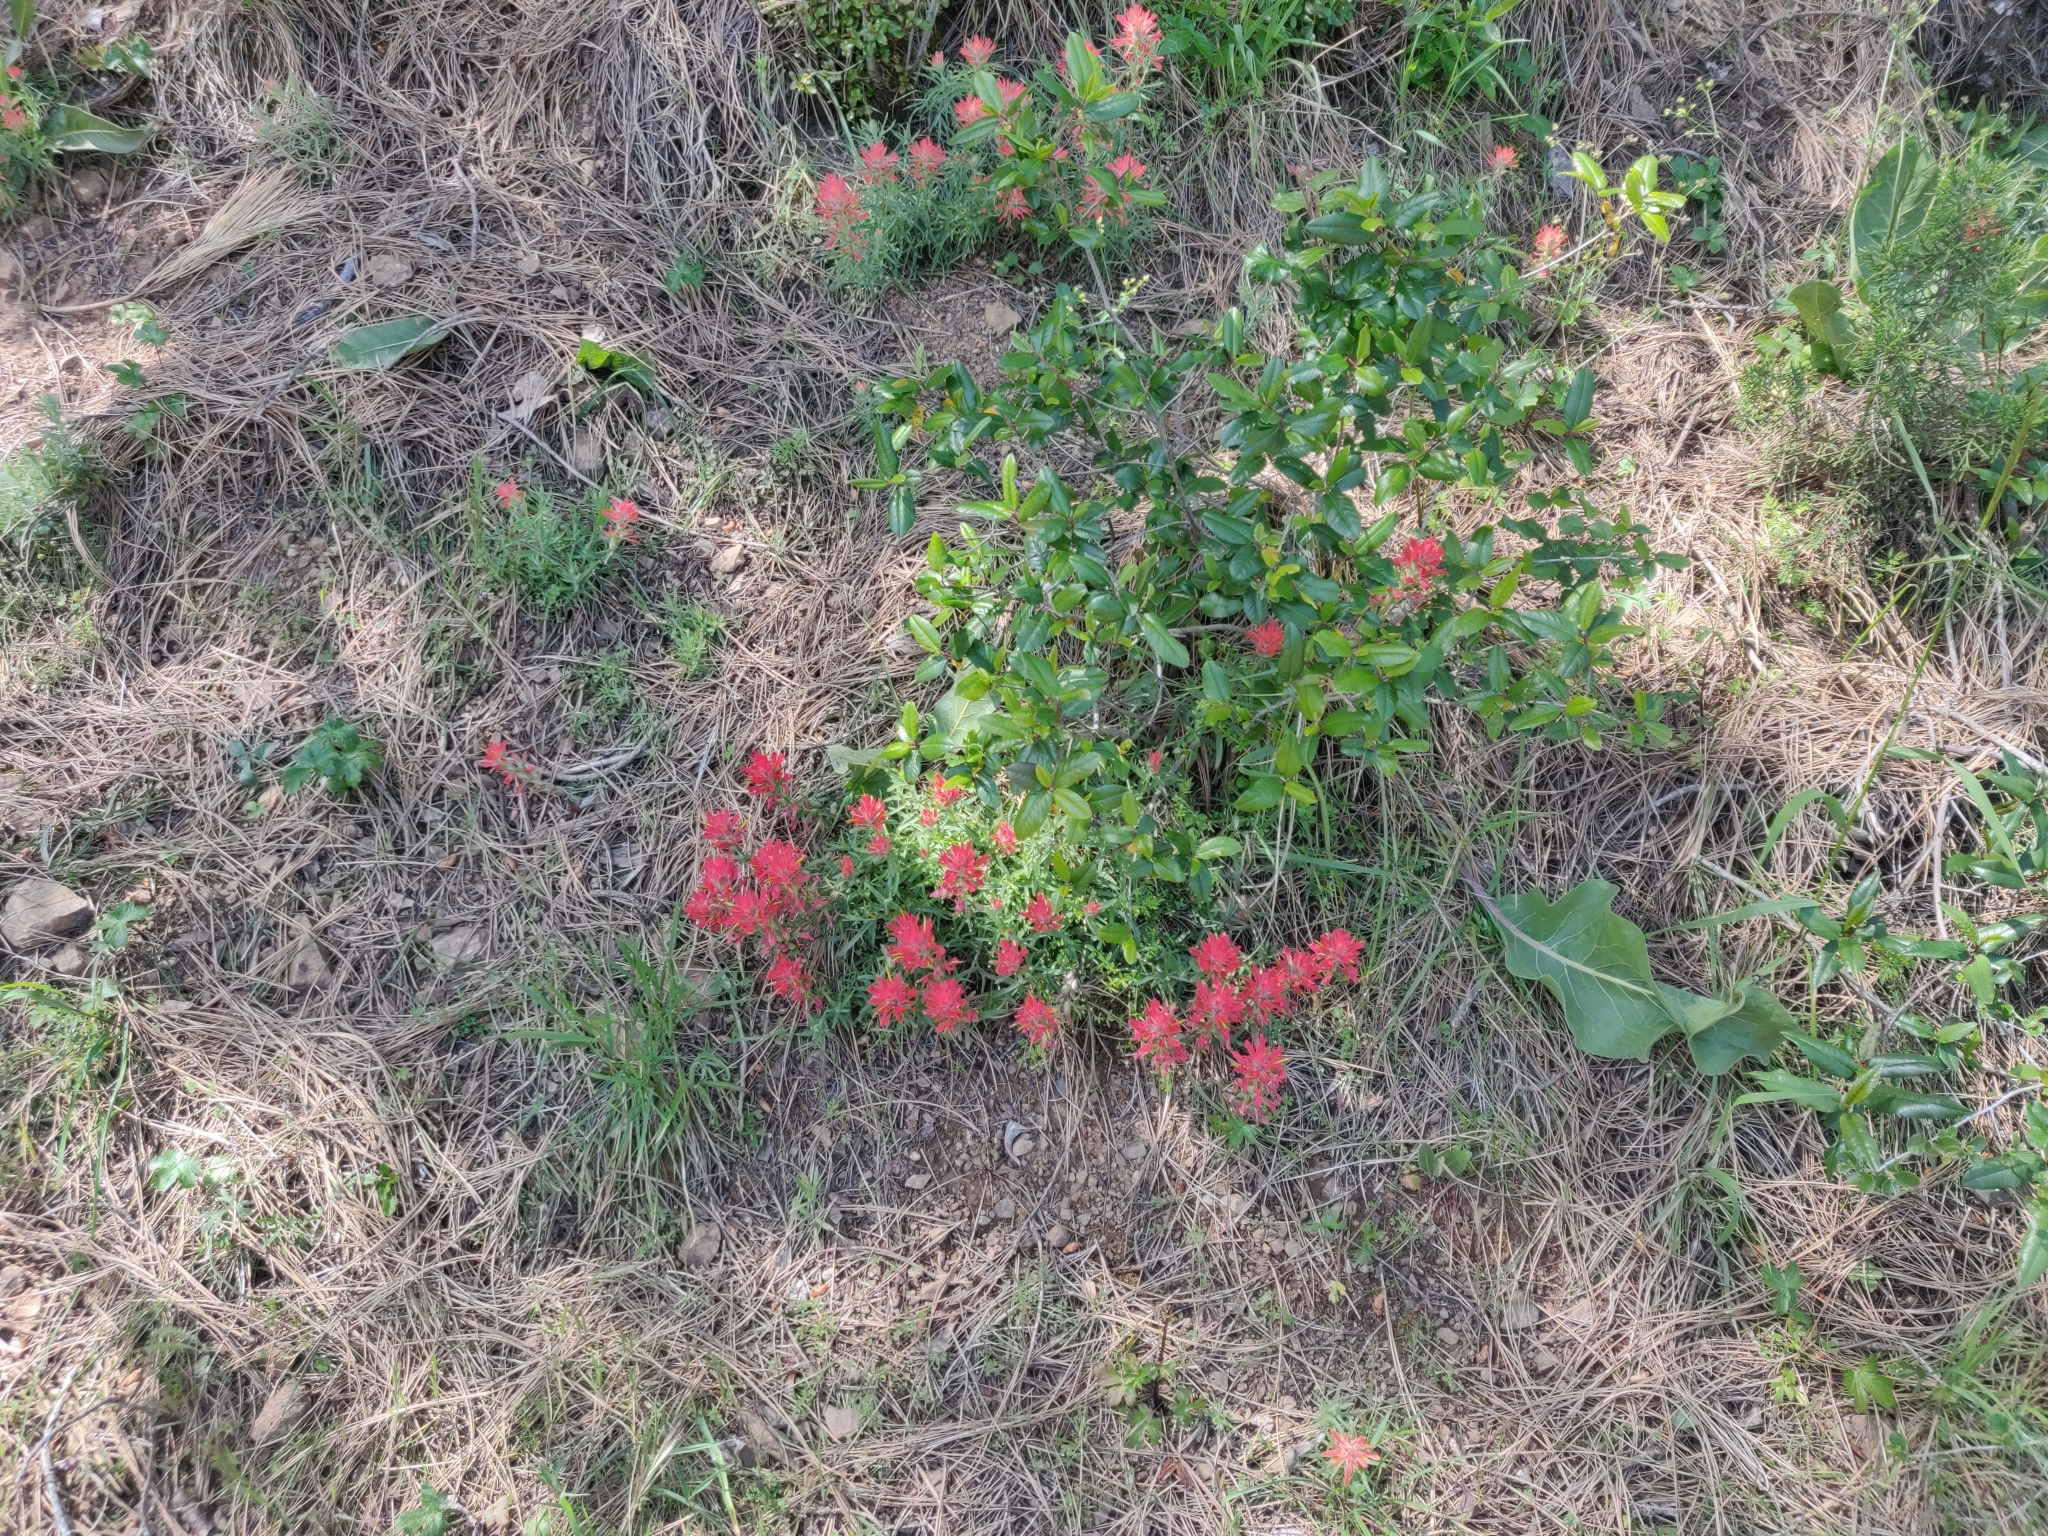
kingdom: Plantae
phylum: Tracheophyta
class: Magnoliopsida
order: Lamiales
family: Orobanchaceae
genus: Castilleja
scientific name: Castilleja affinis
